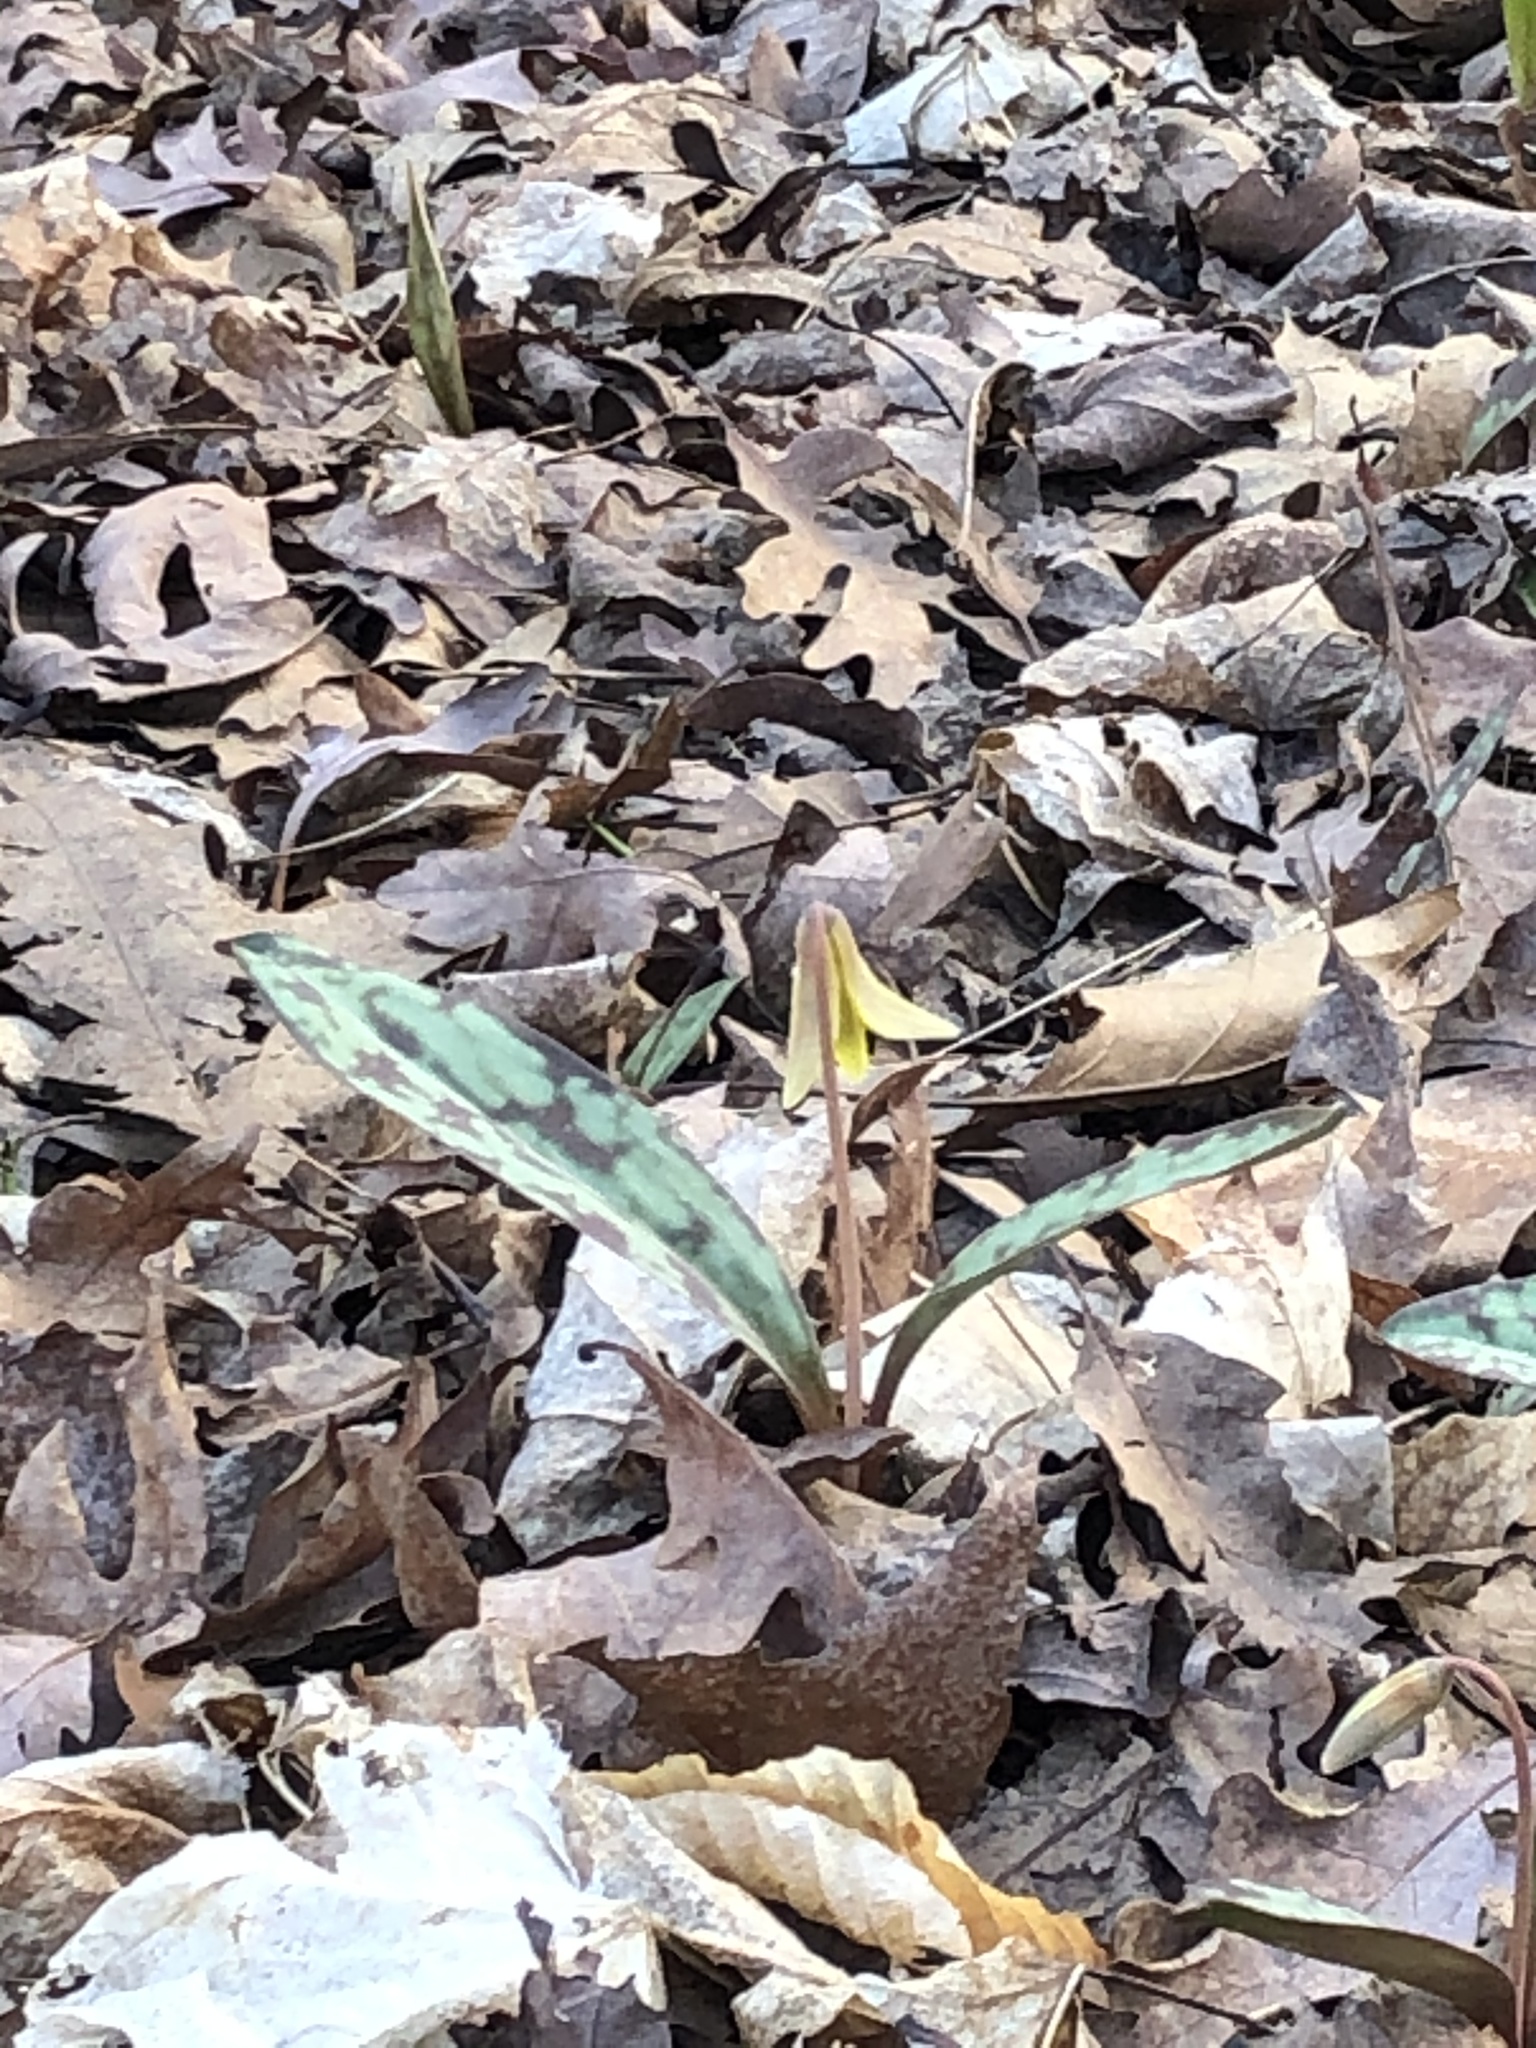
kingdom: Plantae
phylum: Tracheophyta
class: Liliopsida
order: Liliales
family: Liliaceae
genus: Erythronium
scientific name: Erythronium americanum
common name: Yellow adder's-tongue
